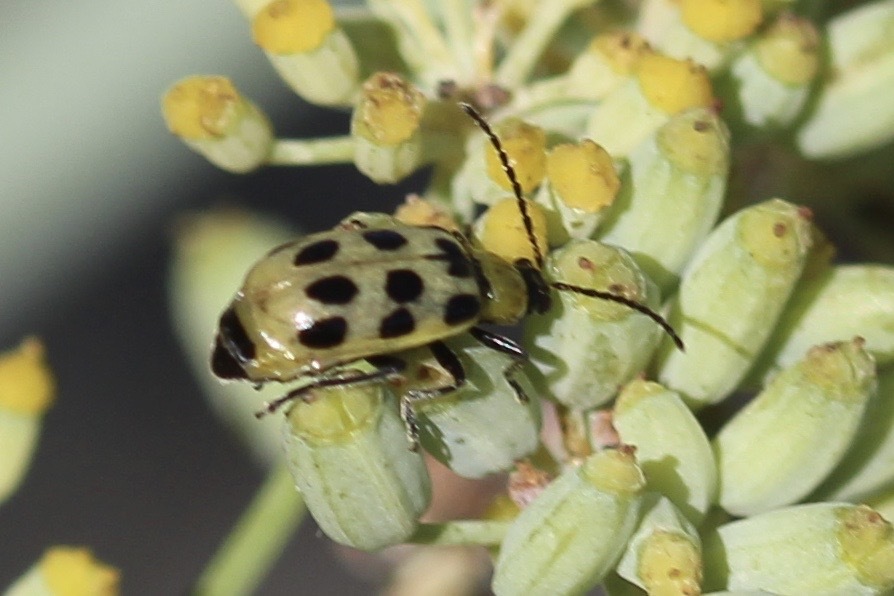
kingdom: Animalia
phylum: Arthropoda
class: Insecta
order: Coleoptera
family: Chrysomelidae
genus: Diabrotica
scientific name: Diabrotica undecimpunctata
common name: Spotted cucumber beetle
